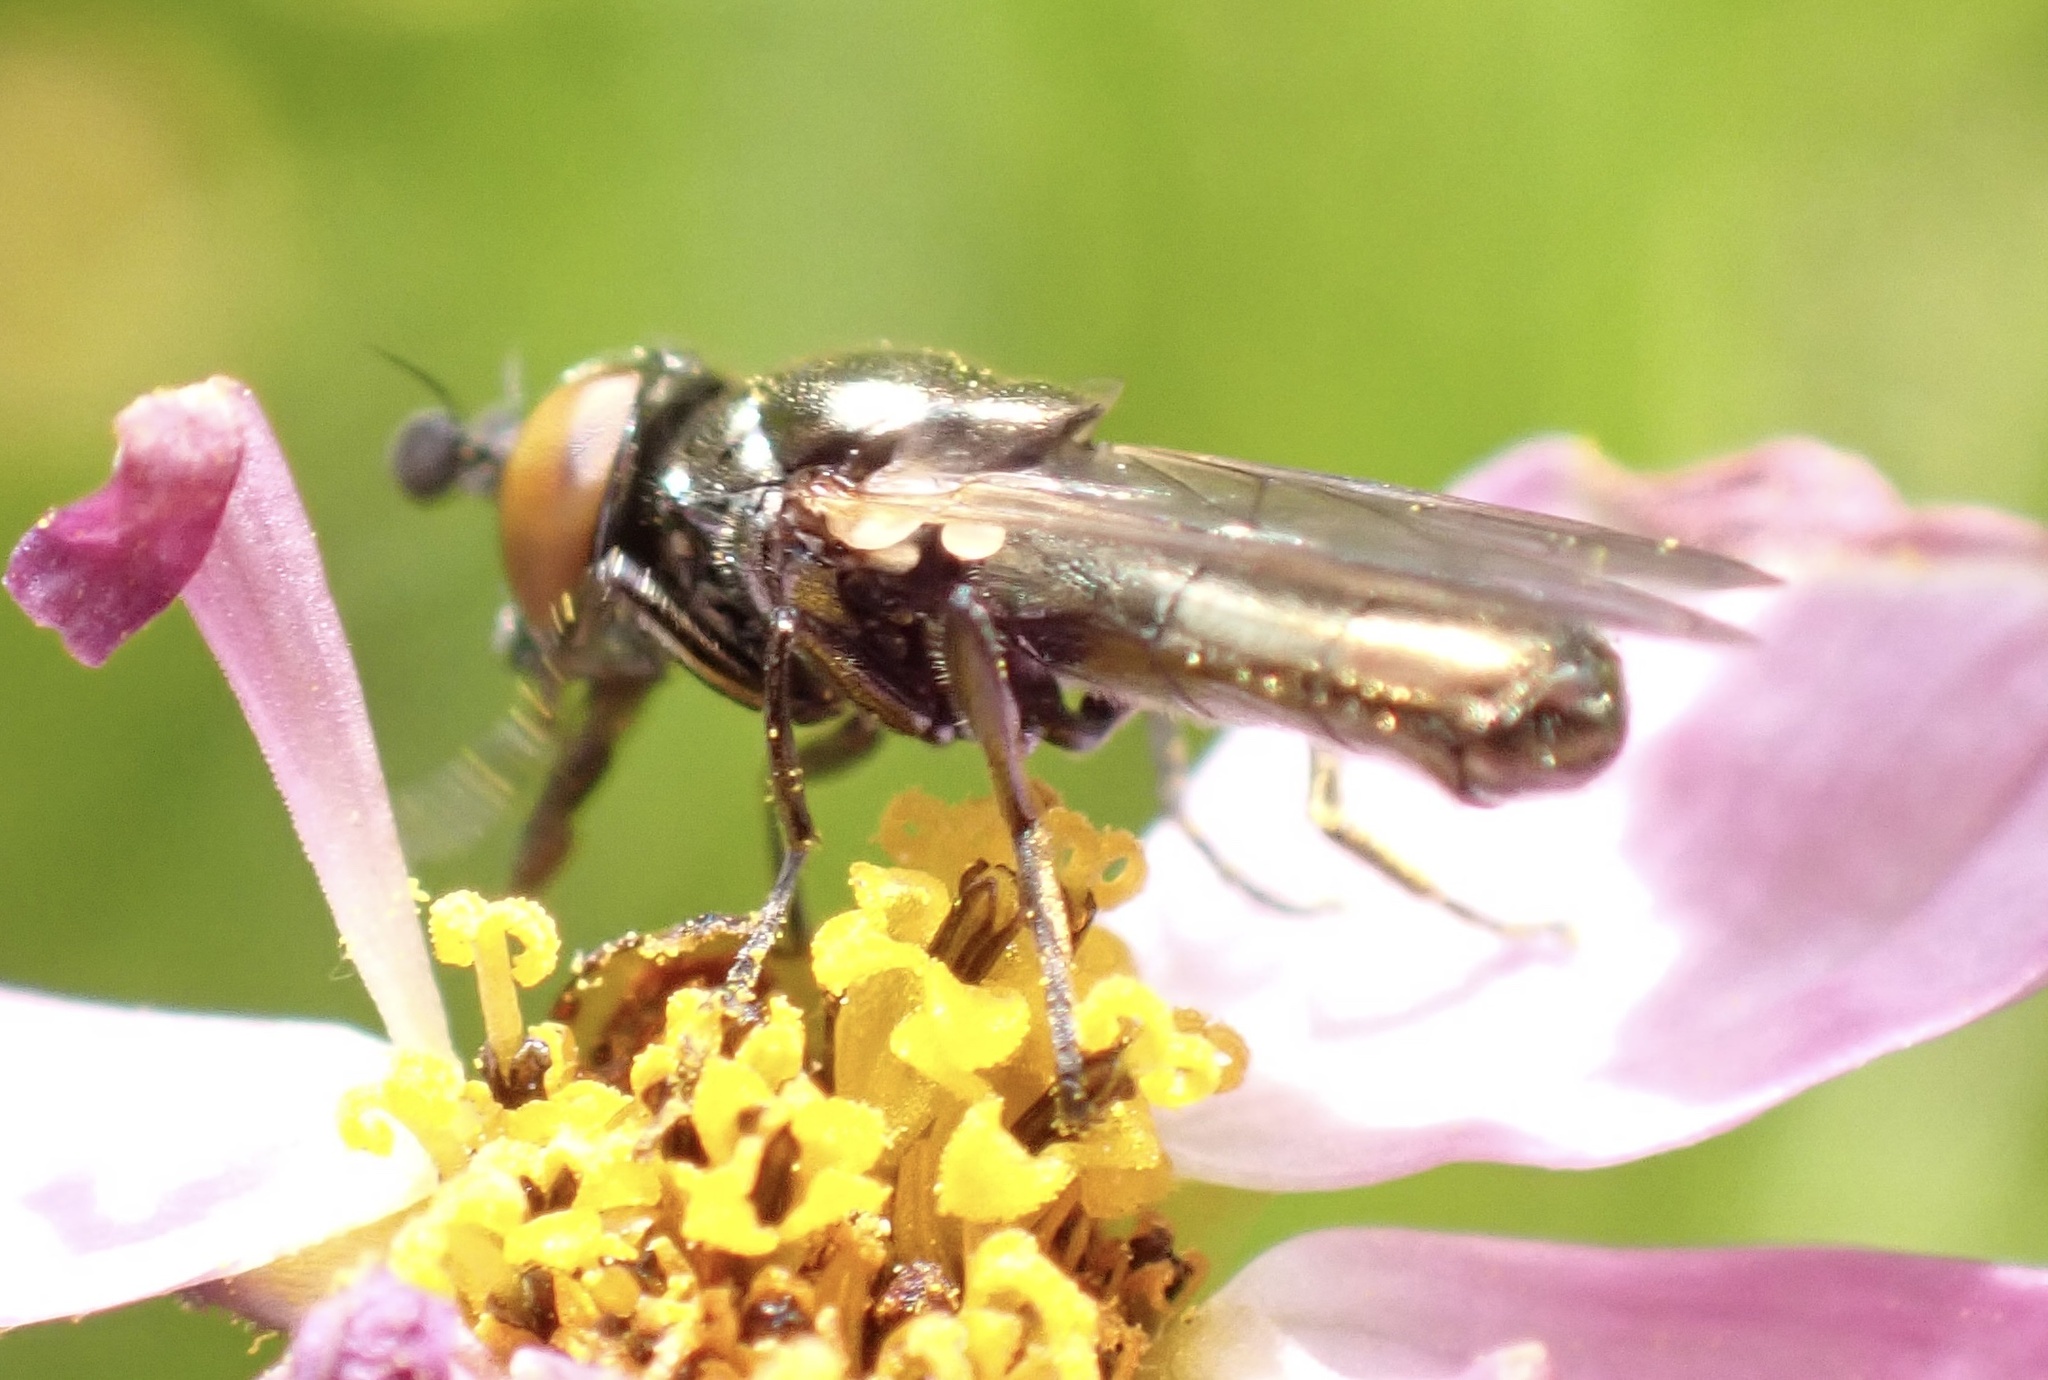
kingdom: Animalia
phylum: Arthropoda
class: Insecta
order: Diptera
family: Syrphidae
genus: Lejogaster
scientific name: Lejogaster metallina
